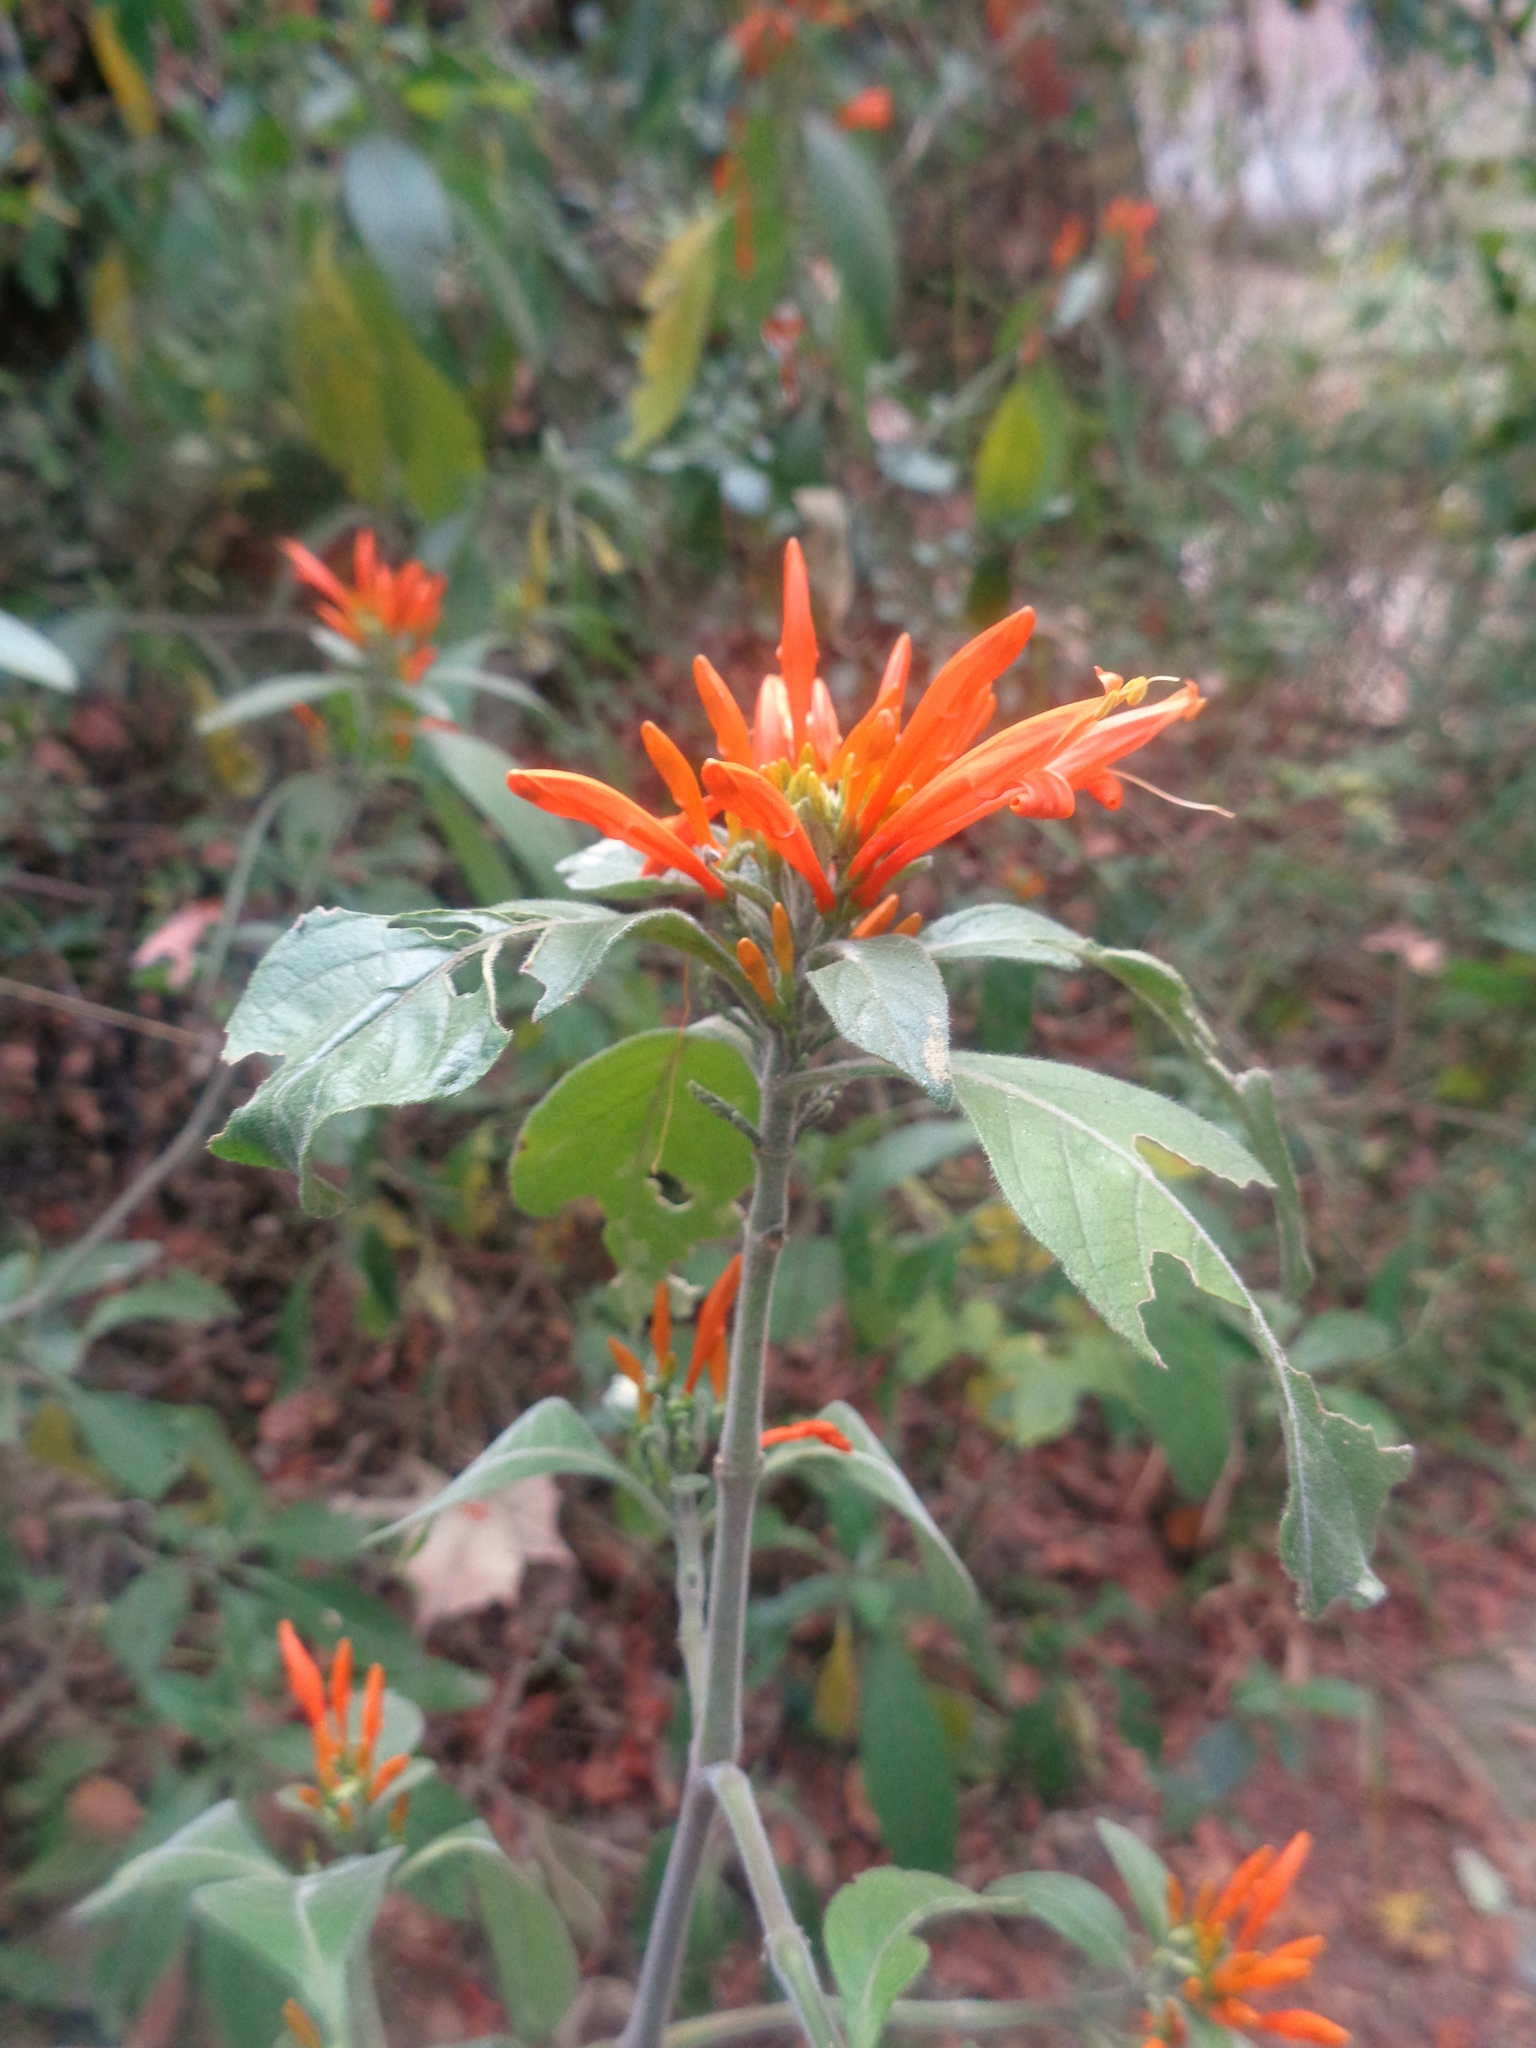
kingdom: Plantae
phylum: Tracheophyta
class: Magnoliopsida
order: Lamiales
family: Acanthaceae
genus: Justicia
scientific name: Justicia spicigera
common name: Mohintli
